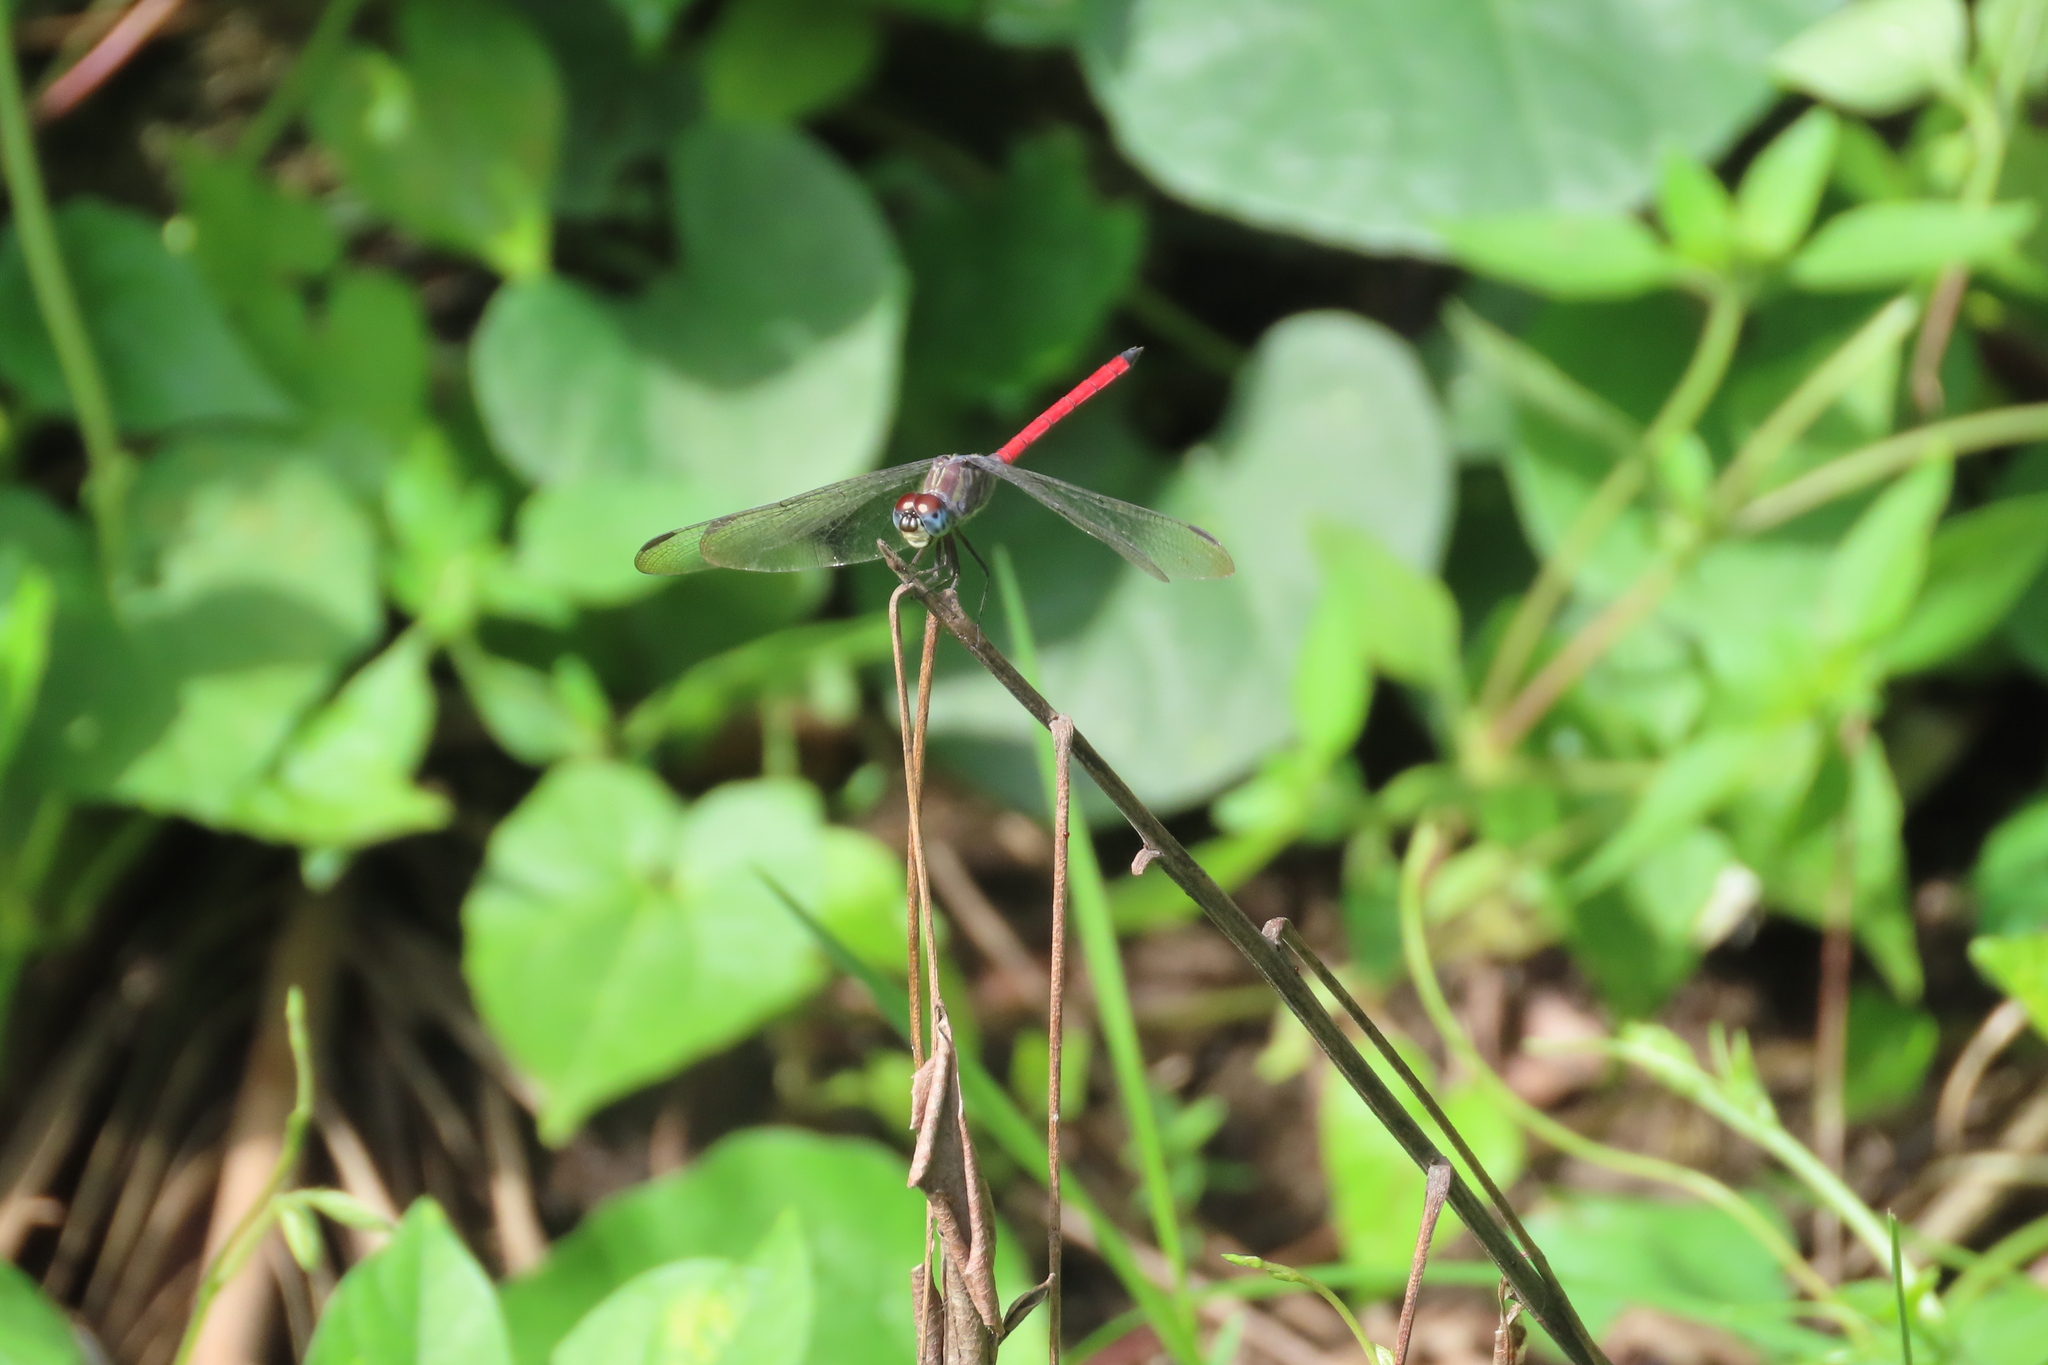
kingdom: Animalia
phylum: Arthropoda
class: Insecta
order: Odonata
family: Libellulidae
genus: Lathrecista
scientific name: Lathrecista asiatica
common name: Scarlet grenadier
